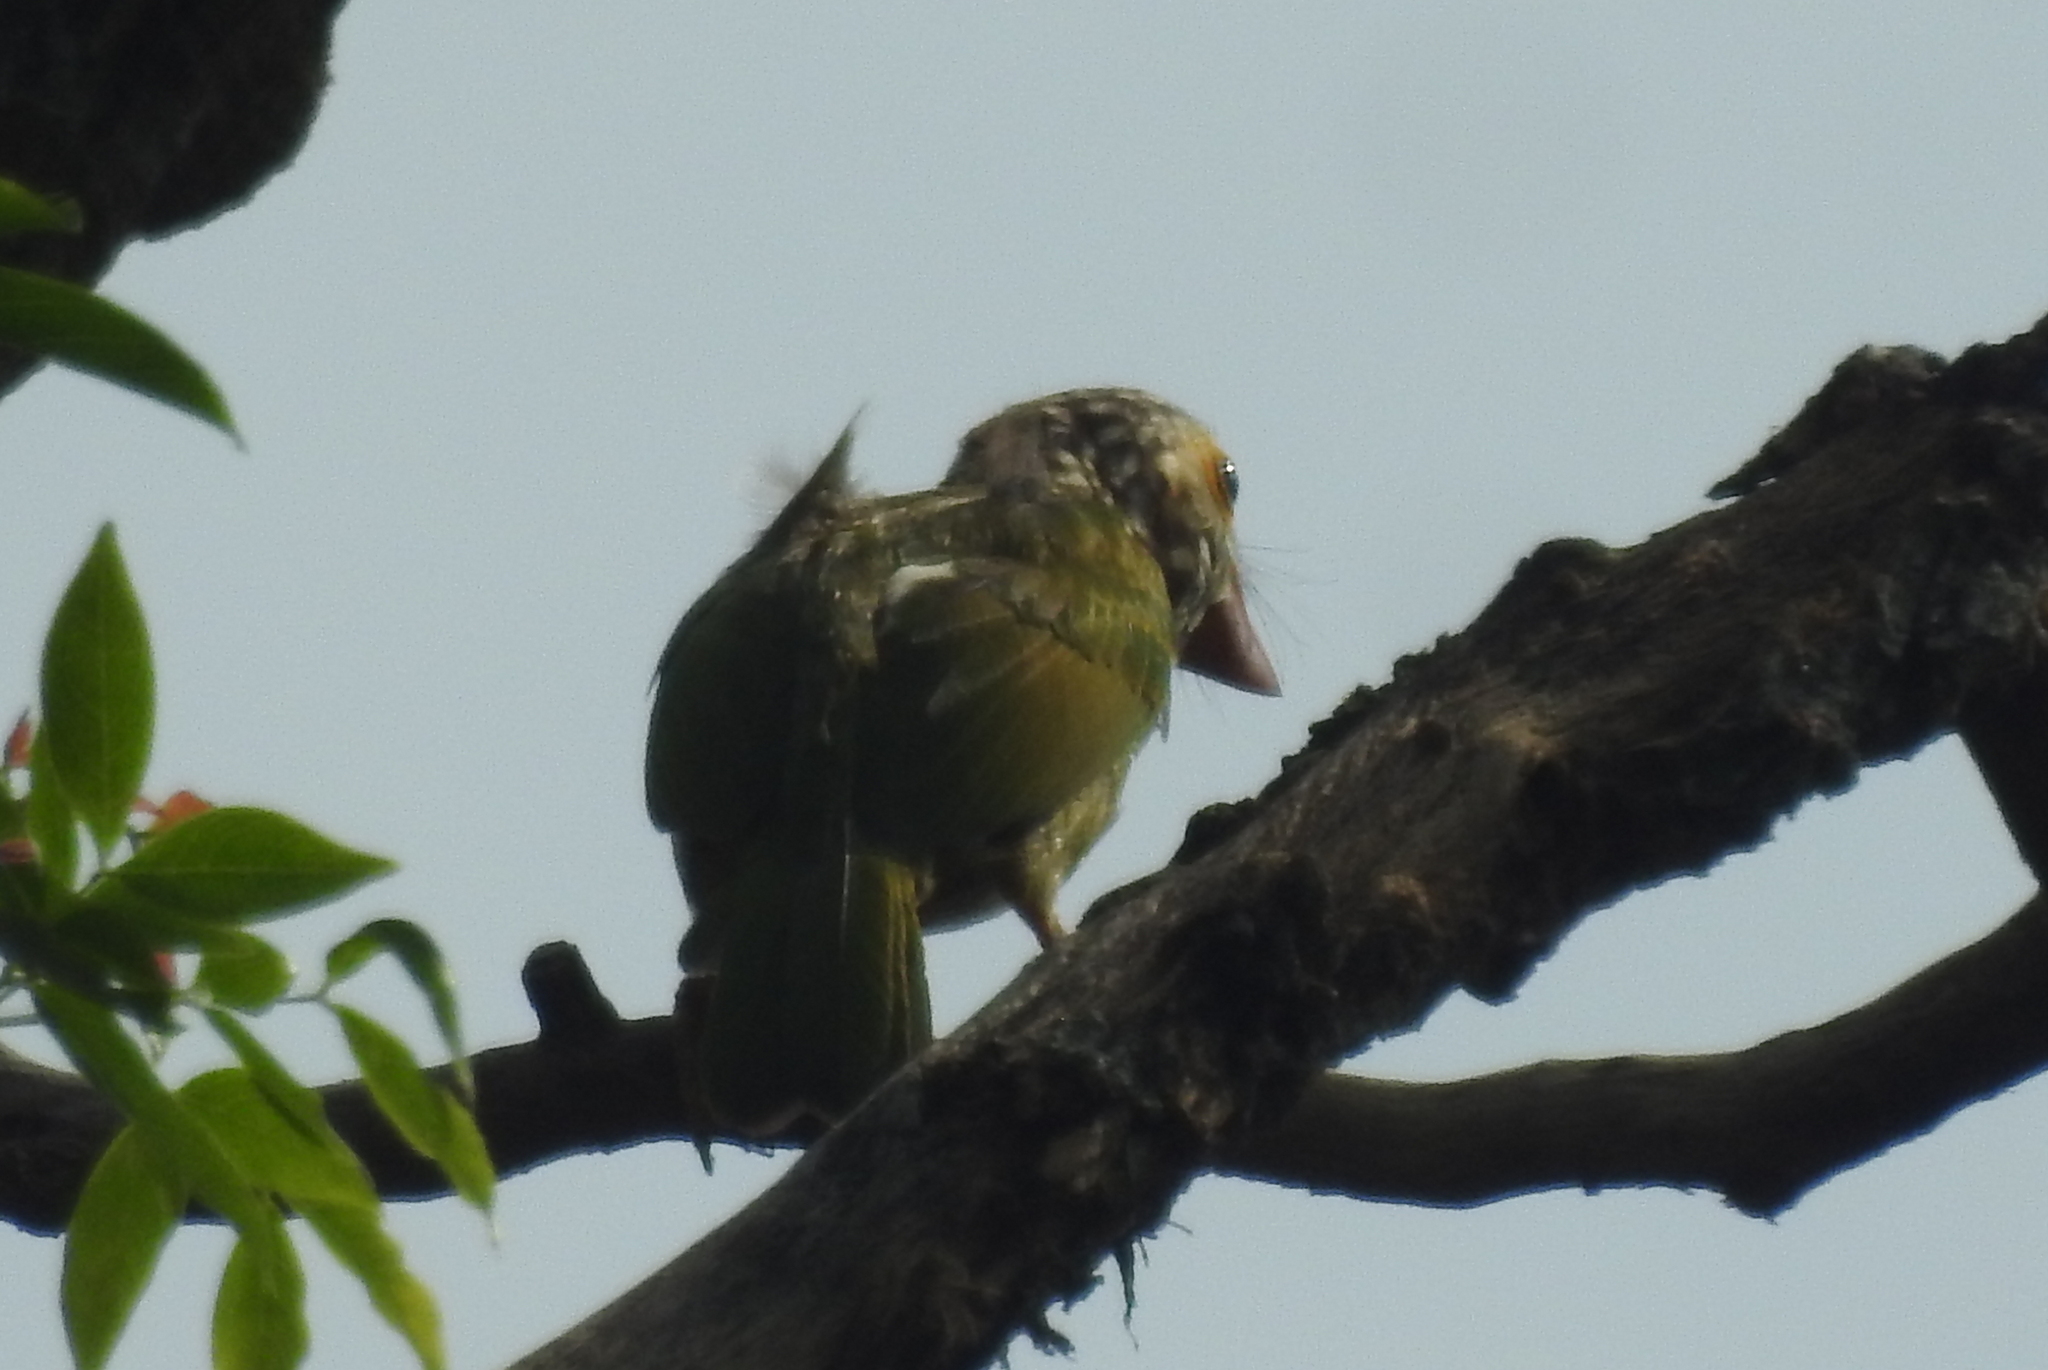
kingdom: Animalia
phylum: Chordata
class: Aves
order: Piciformes
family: Megalaimidae
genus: Psilopogon
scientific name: Psilopogon lineatus
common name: Lineated barbet
